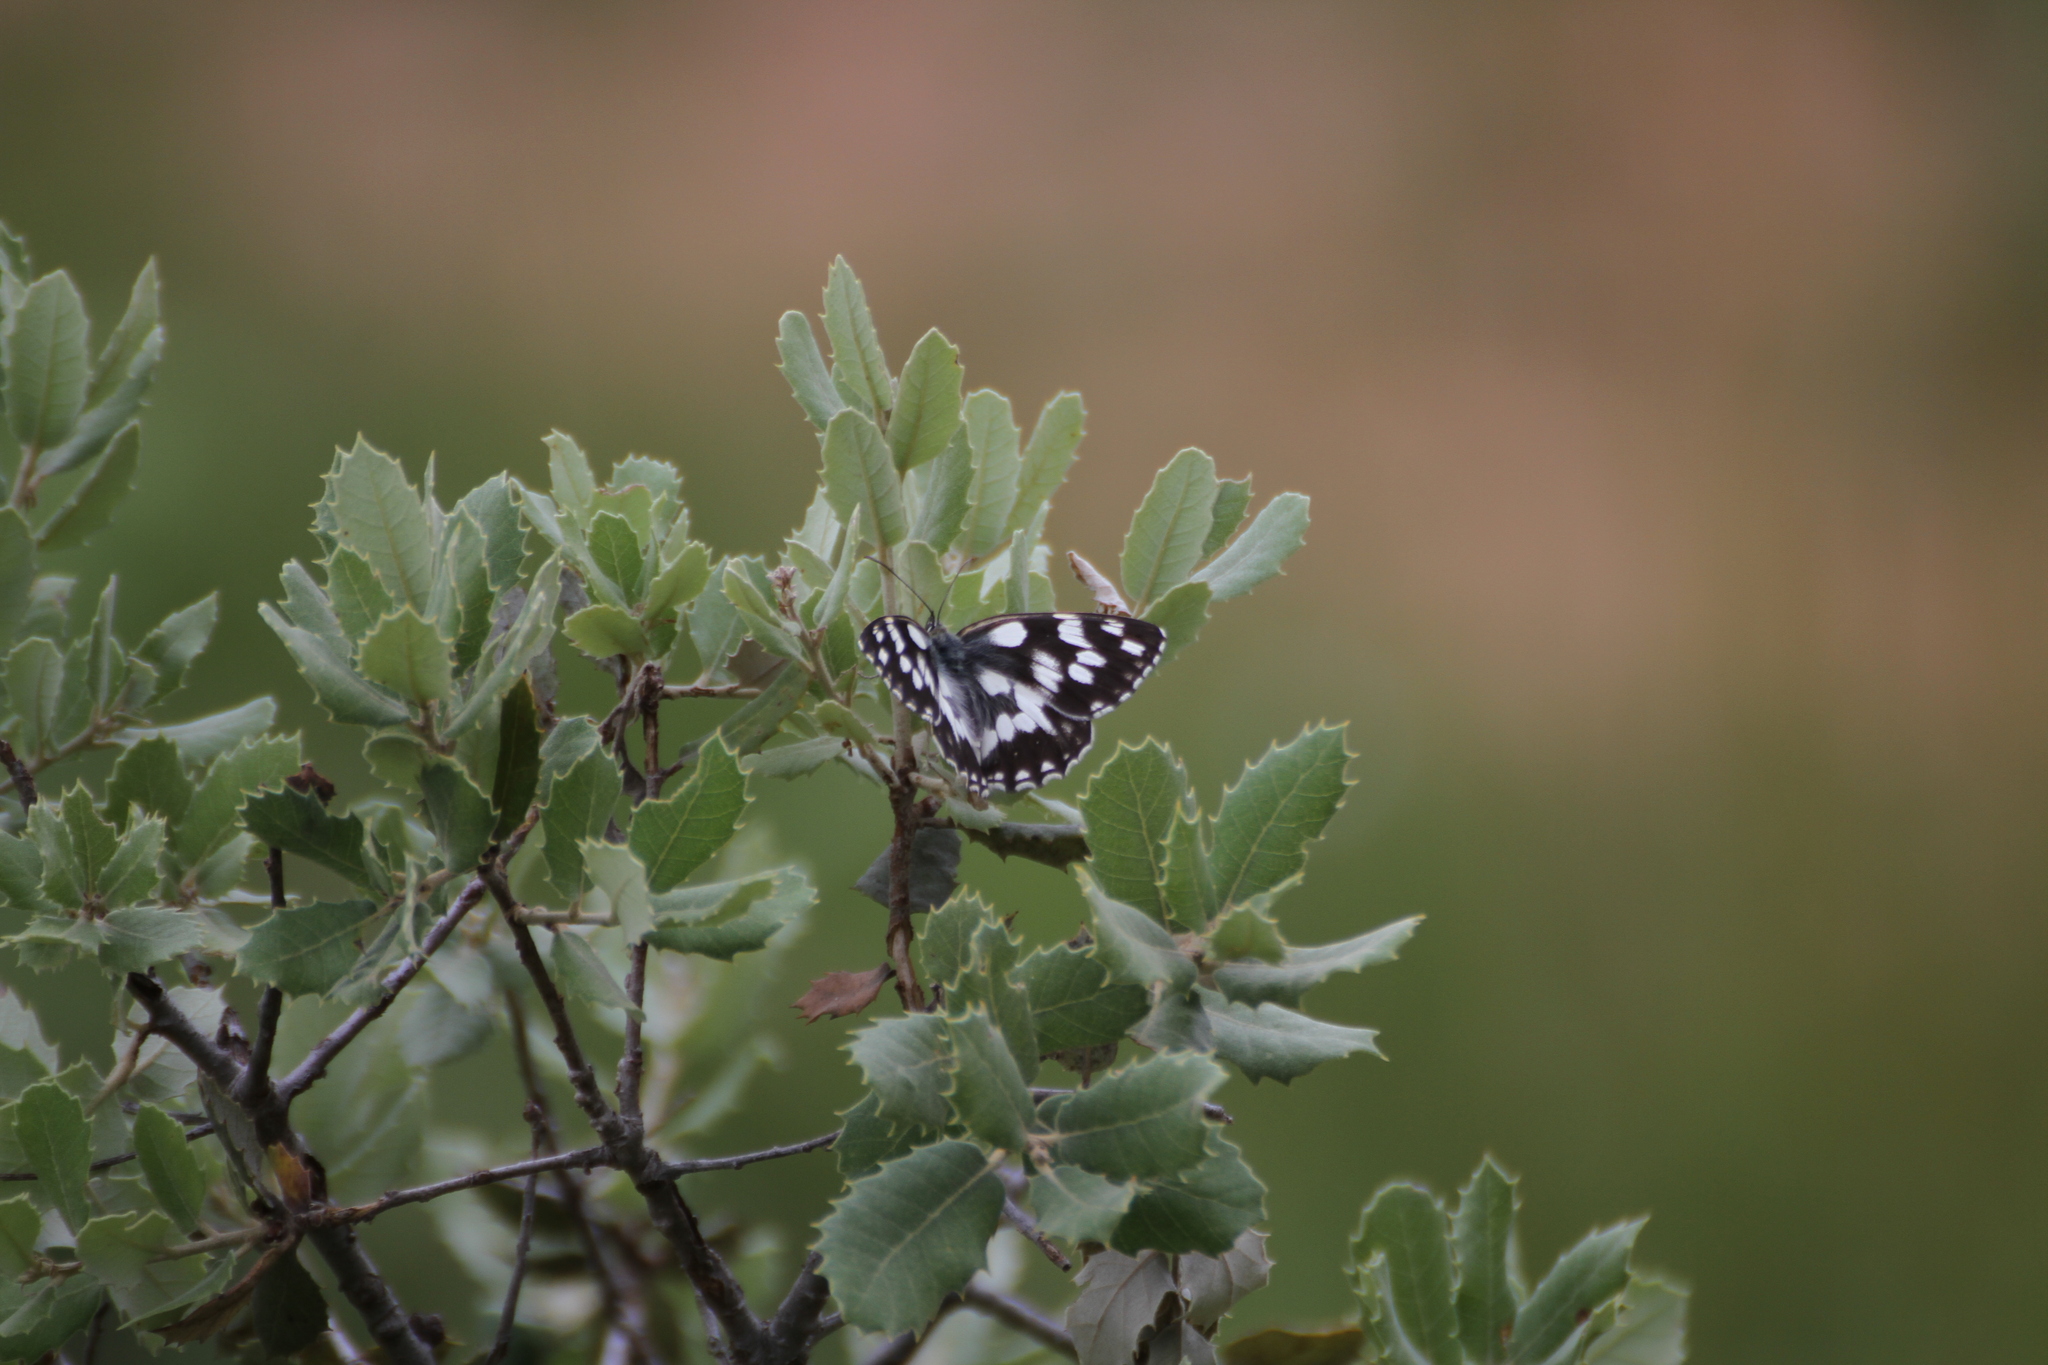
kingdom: Animalia
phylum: Arthropoda
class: Insecta
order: Lepidoptera
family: Nymphalidae
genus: Melanargia
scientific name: Melanargia galathea
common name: Marbled white
